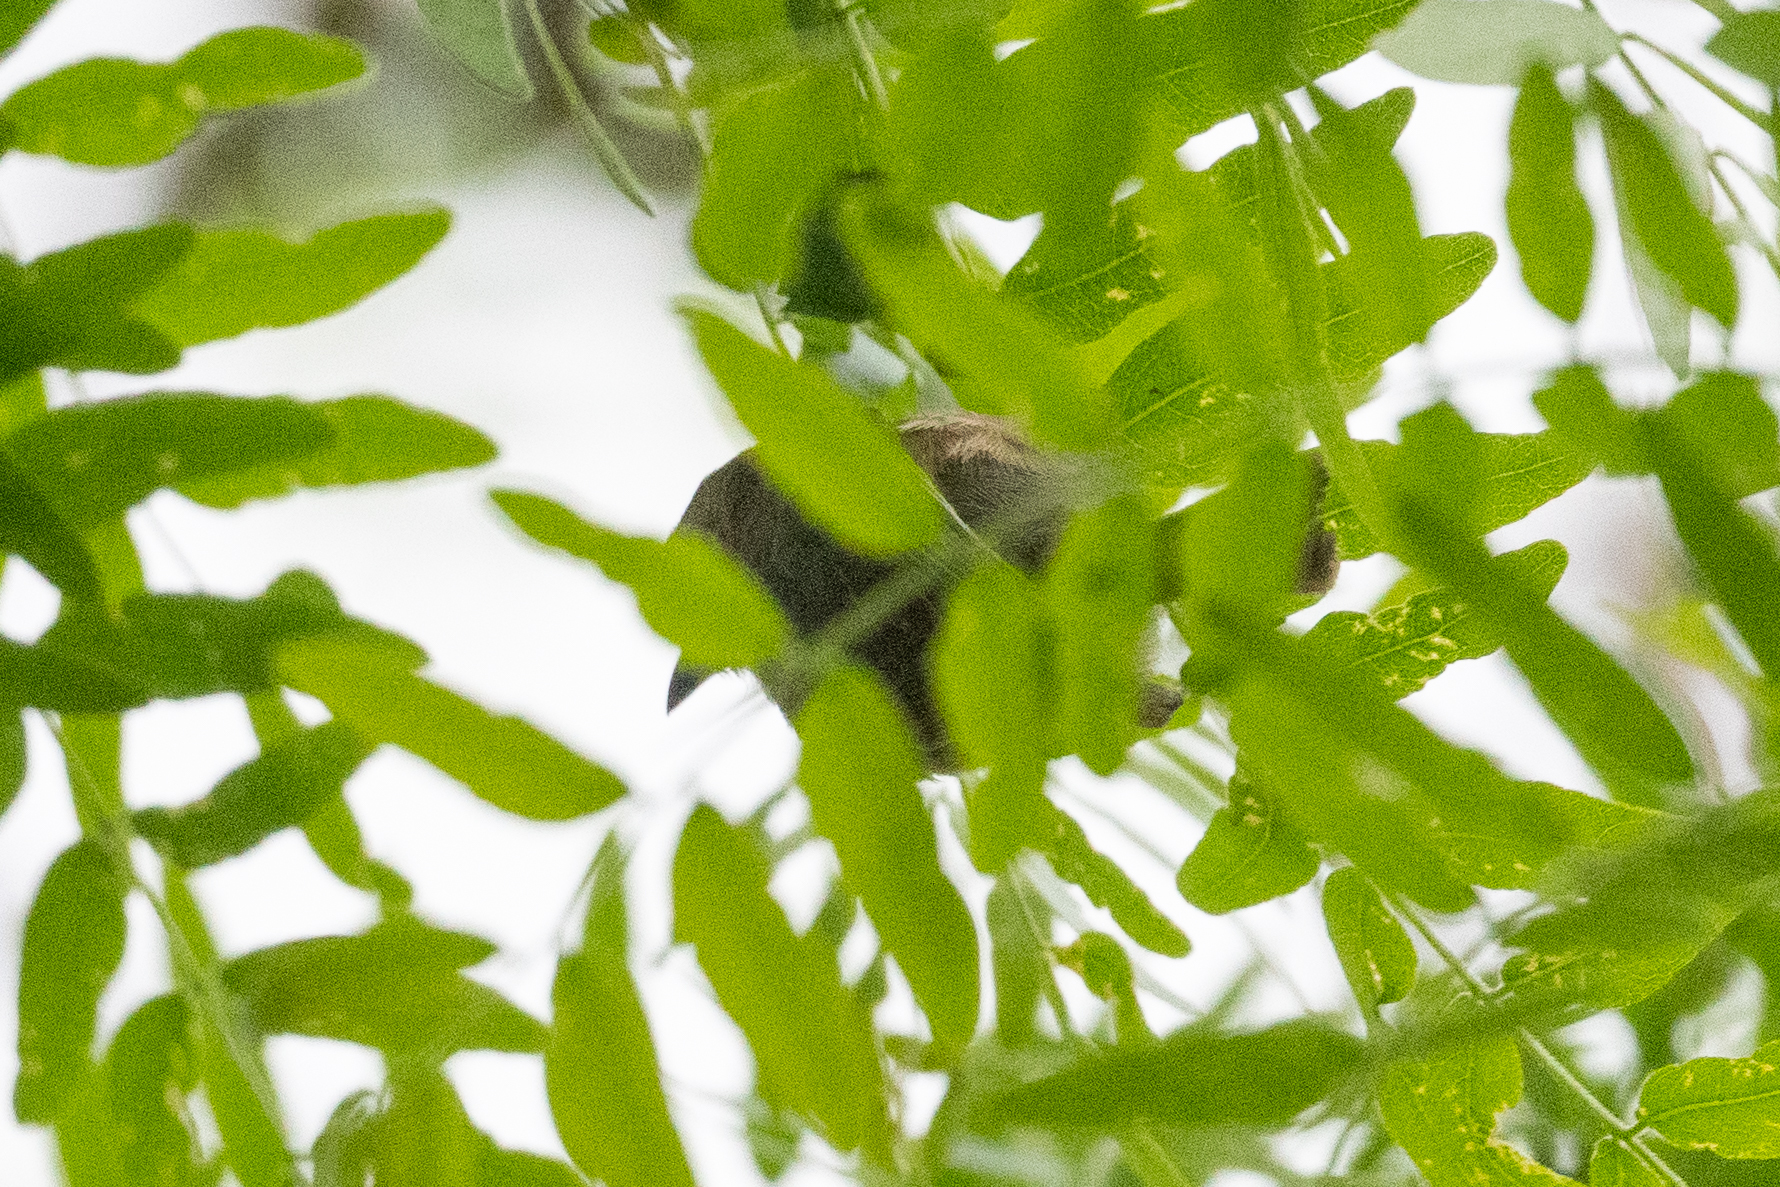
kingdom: Animalia
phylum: Chordata
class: Aves
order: Passeriformes
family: Aegithalidae
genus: Psaltriparus
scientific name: Psaltriparus minimus
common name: American bushtit
